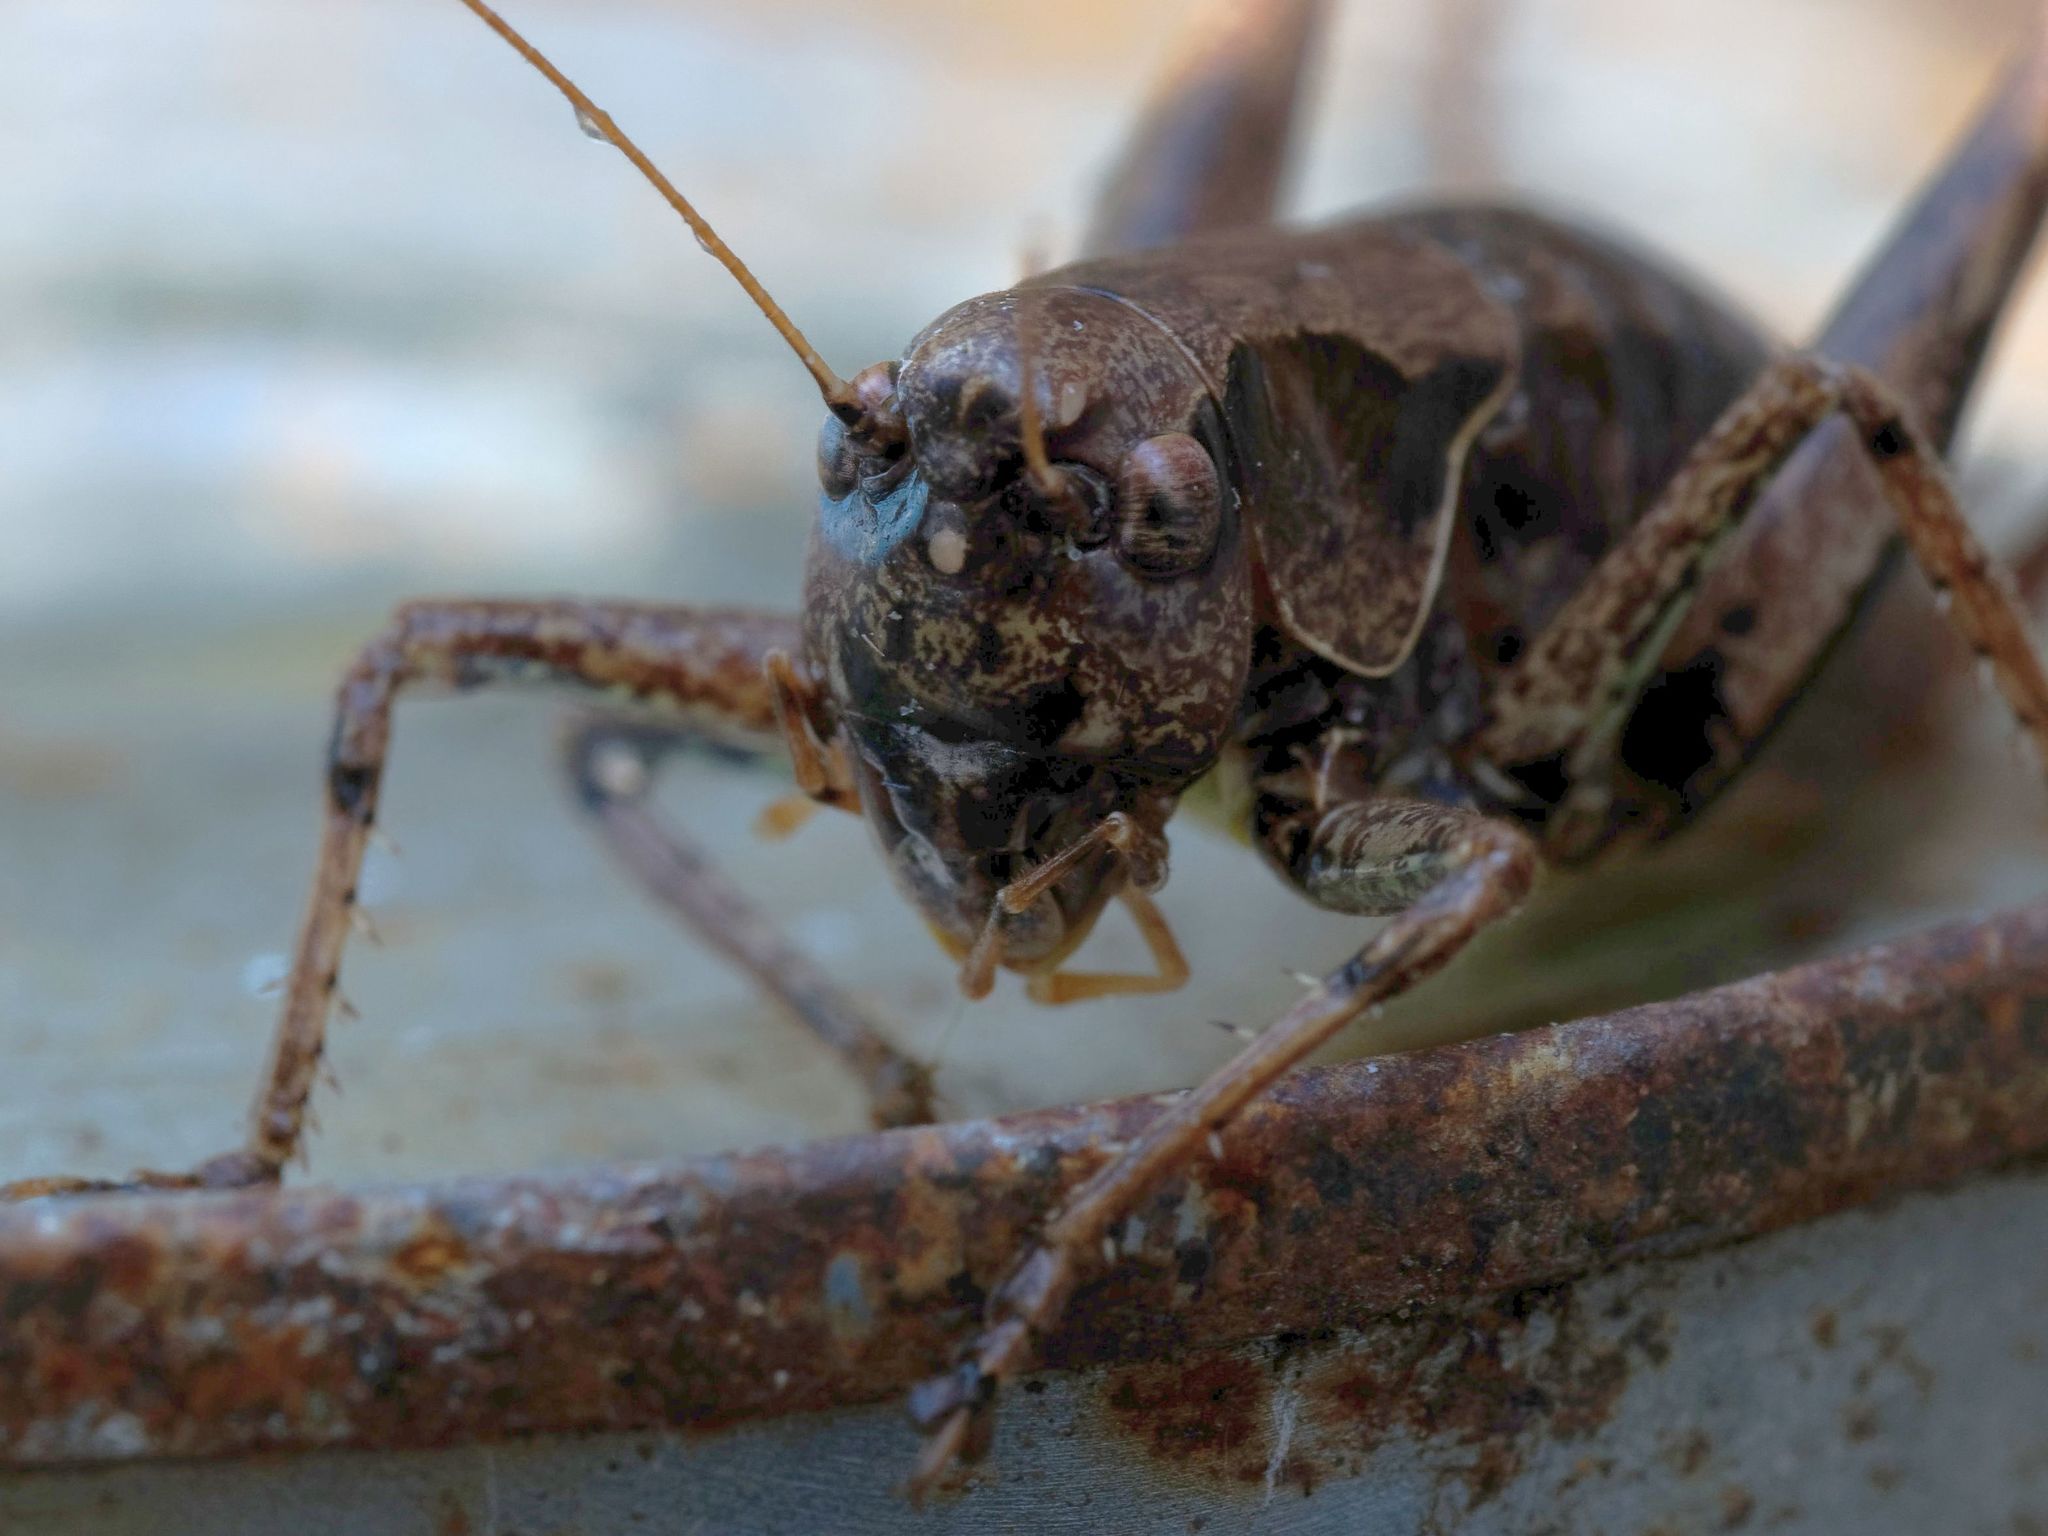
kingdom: Animalia
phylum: Arthropoda
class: Insecta
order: Orthoptera
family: Tettigoniidae
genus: Pholidoptera
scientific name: Pholidoptera griseoaptera
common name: Dark bush-cricket
